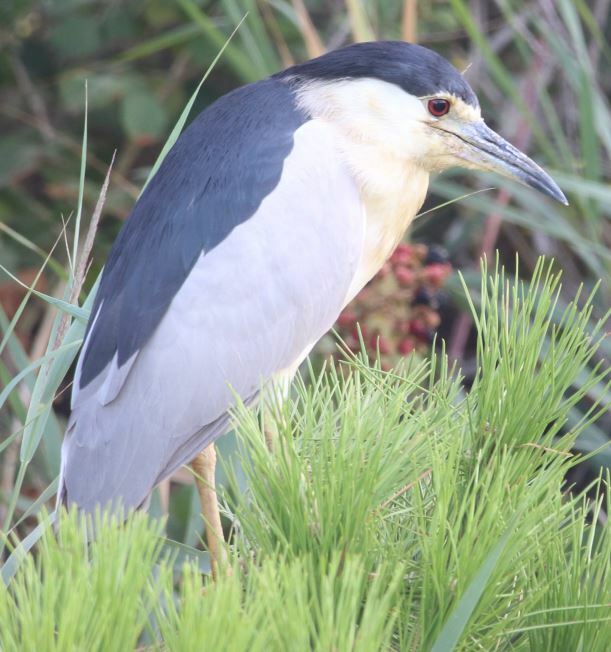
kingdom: Animalia
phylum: Chordata
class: Aves
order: Pelecaniformes
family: Ardeidae
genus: Nycticorax
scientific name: Nycticorax nycticorax
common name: Black-crowned night heron
